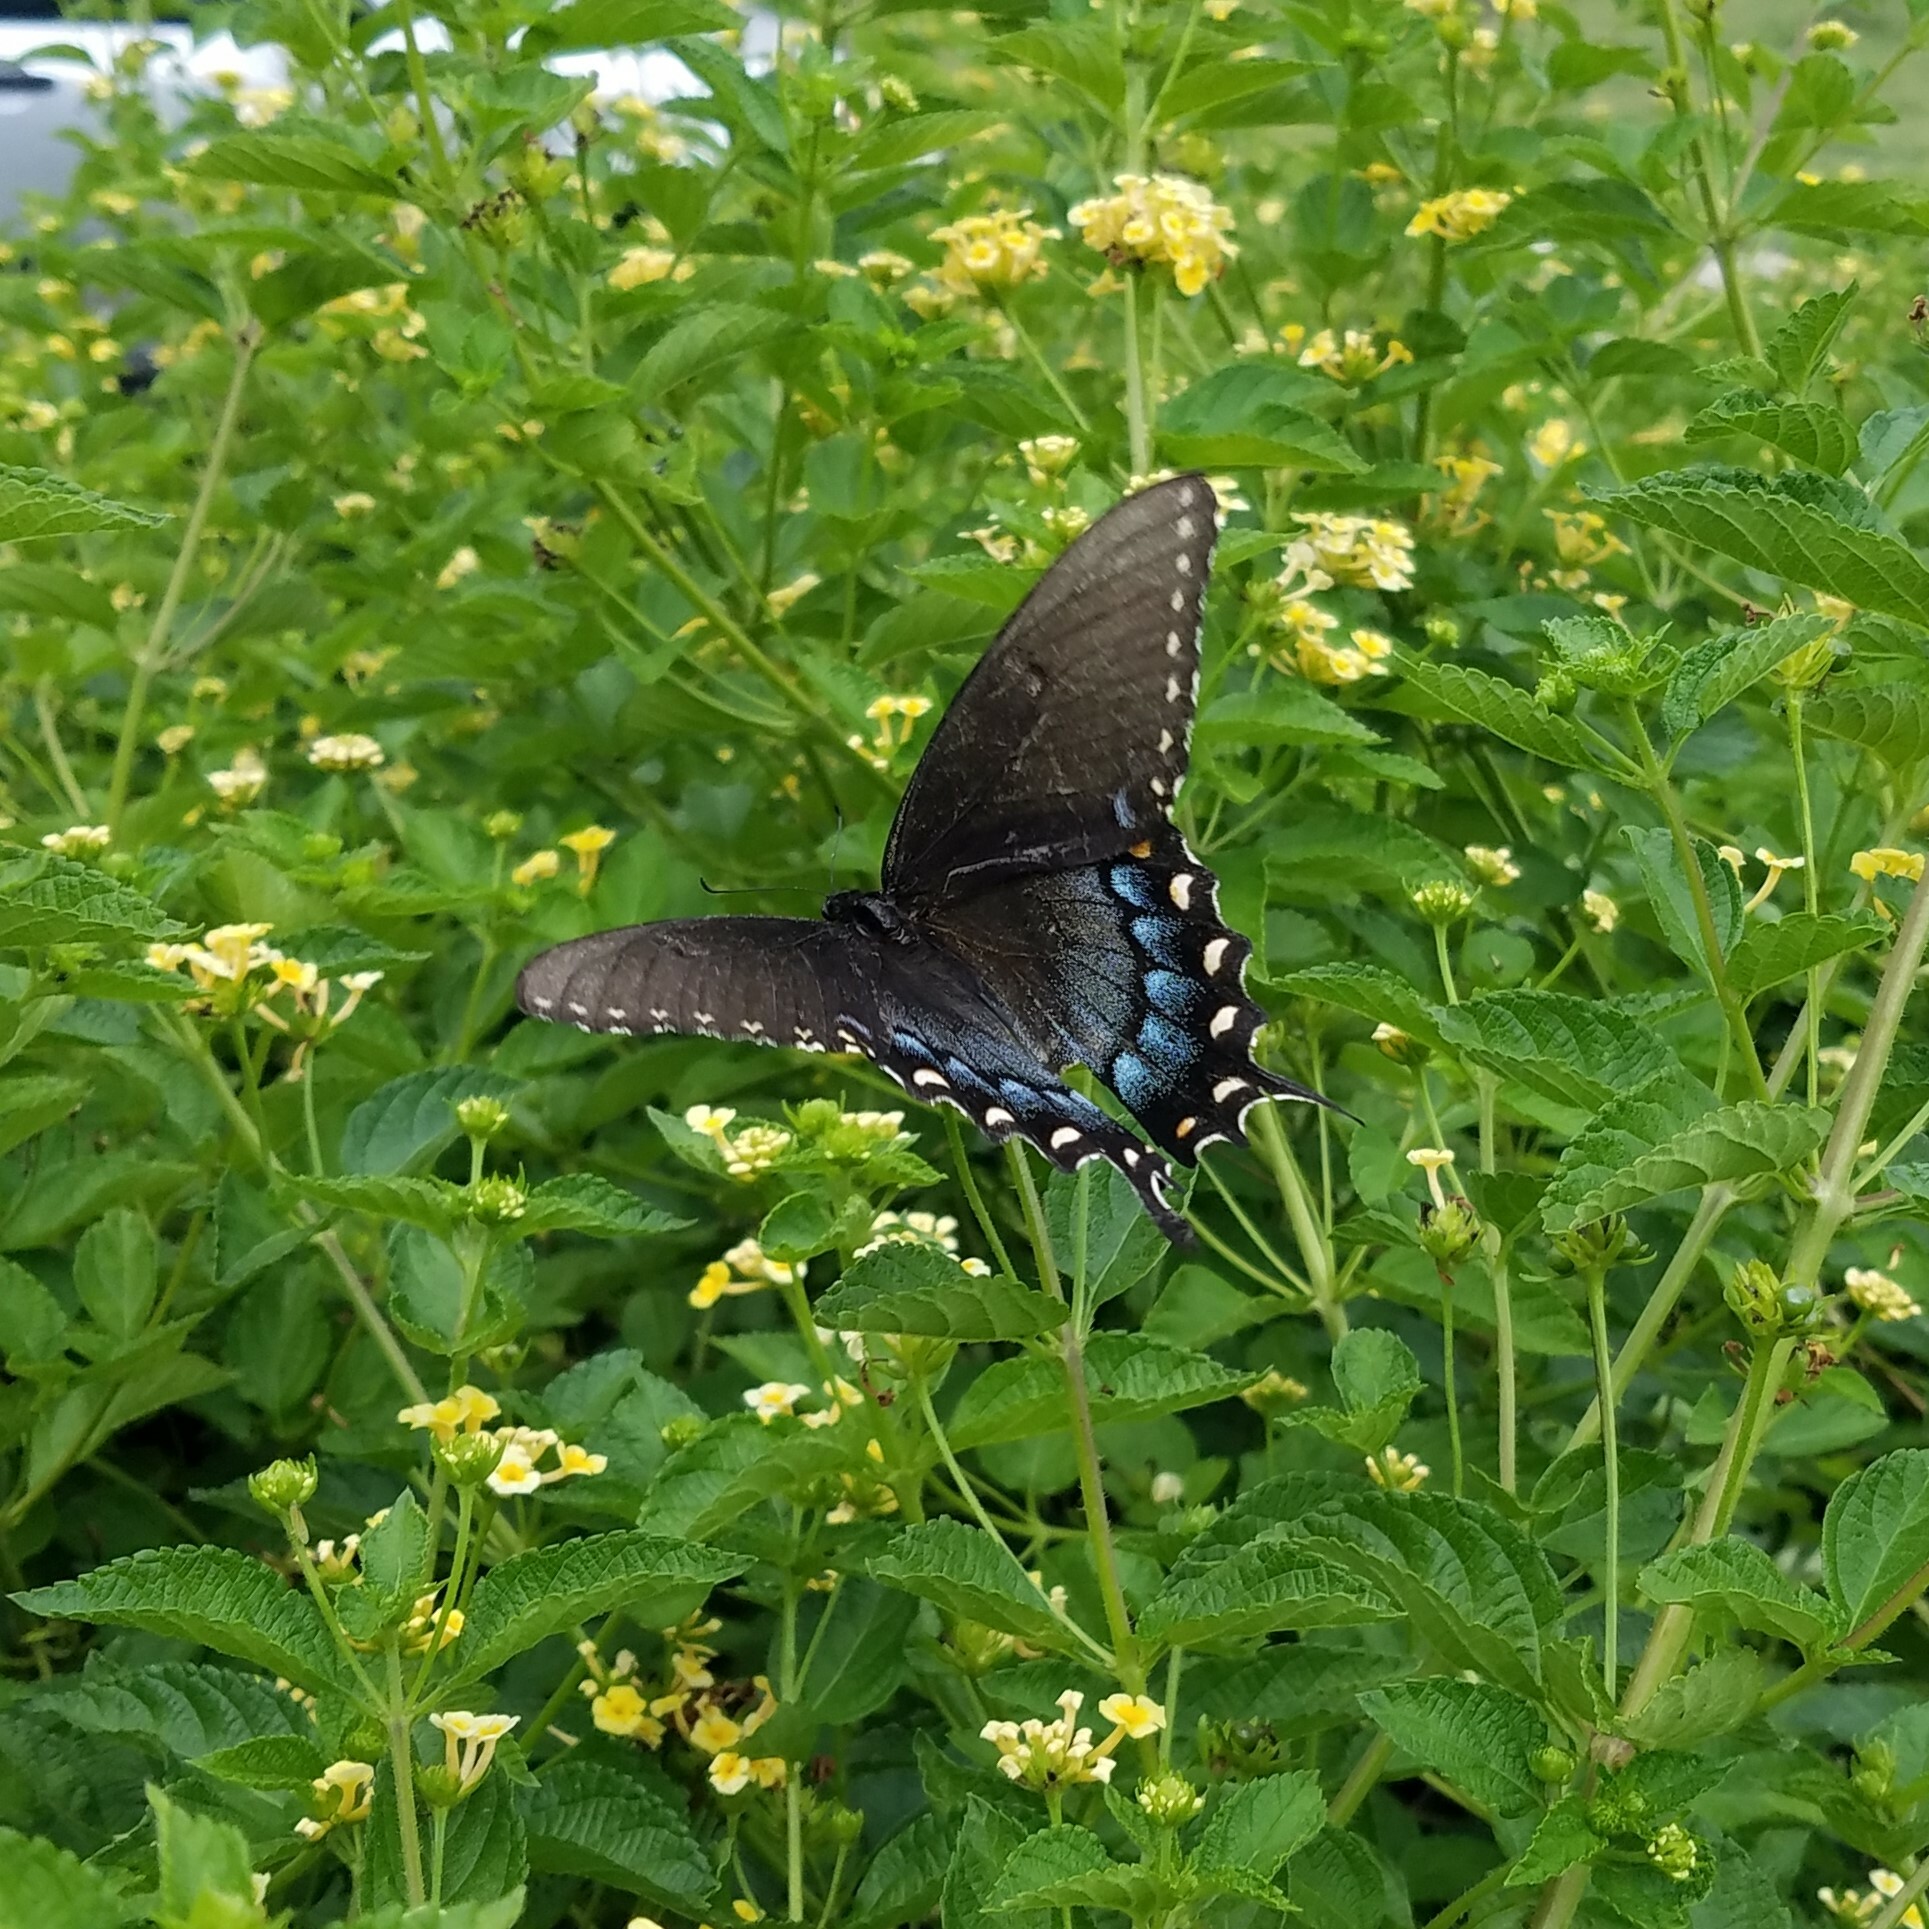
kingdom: Animalia
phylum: Arthropoda
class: Insecta
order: Lepidoptera
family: Papilionidae
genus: Papilio
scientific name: Papilio glaucus
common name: Tiger swallowtail
